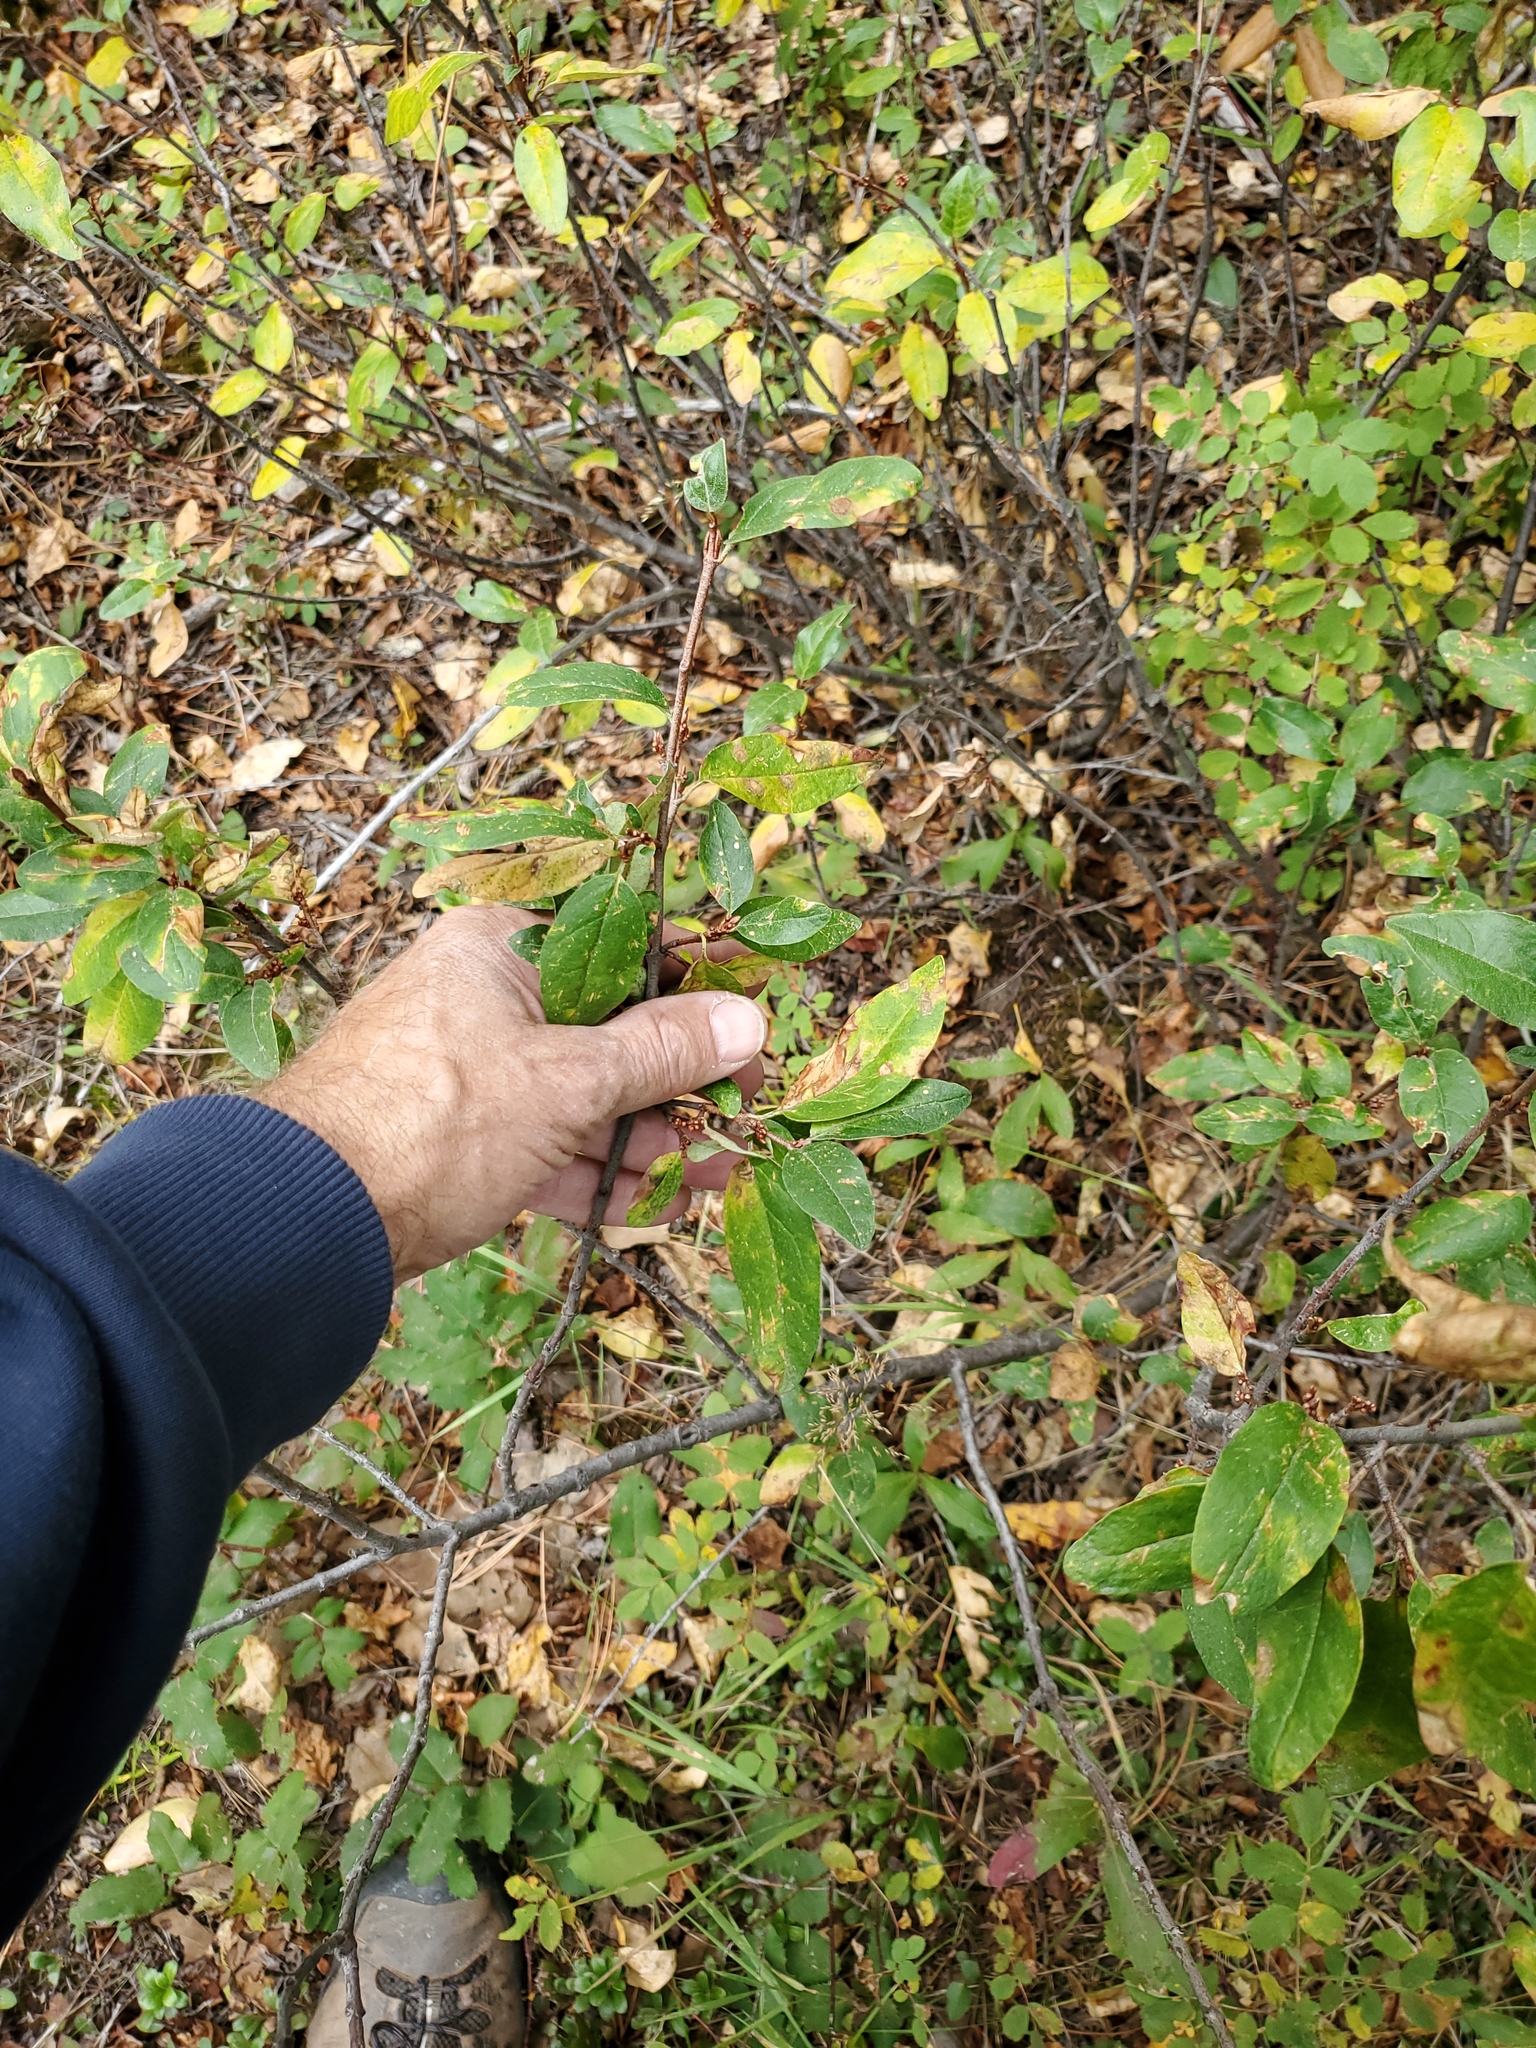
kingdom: Plantae
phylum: Tracheophyta
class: Magnoliopsida
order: Rosales
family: Elaeagnaceae
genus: Shepherdia
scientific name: Shepherdia canadensis
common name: Soapberry
